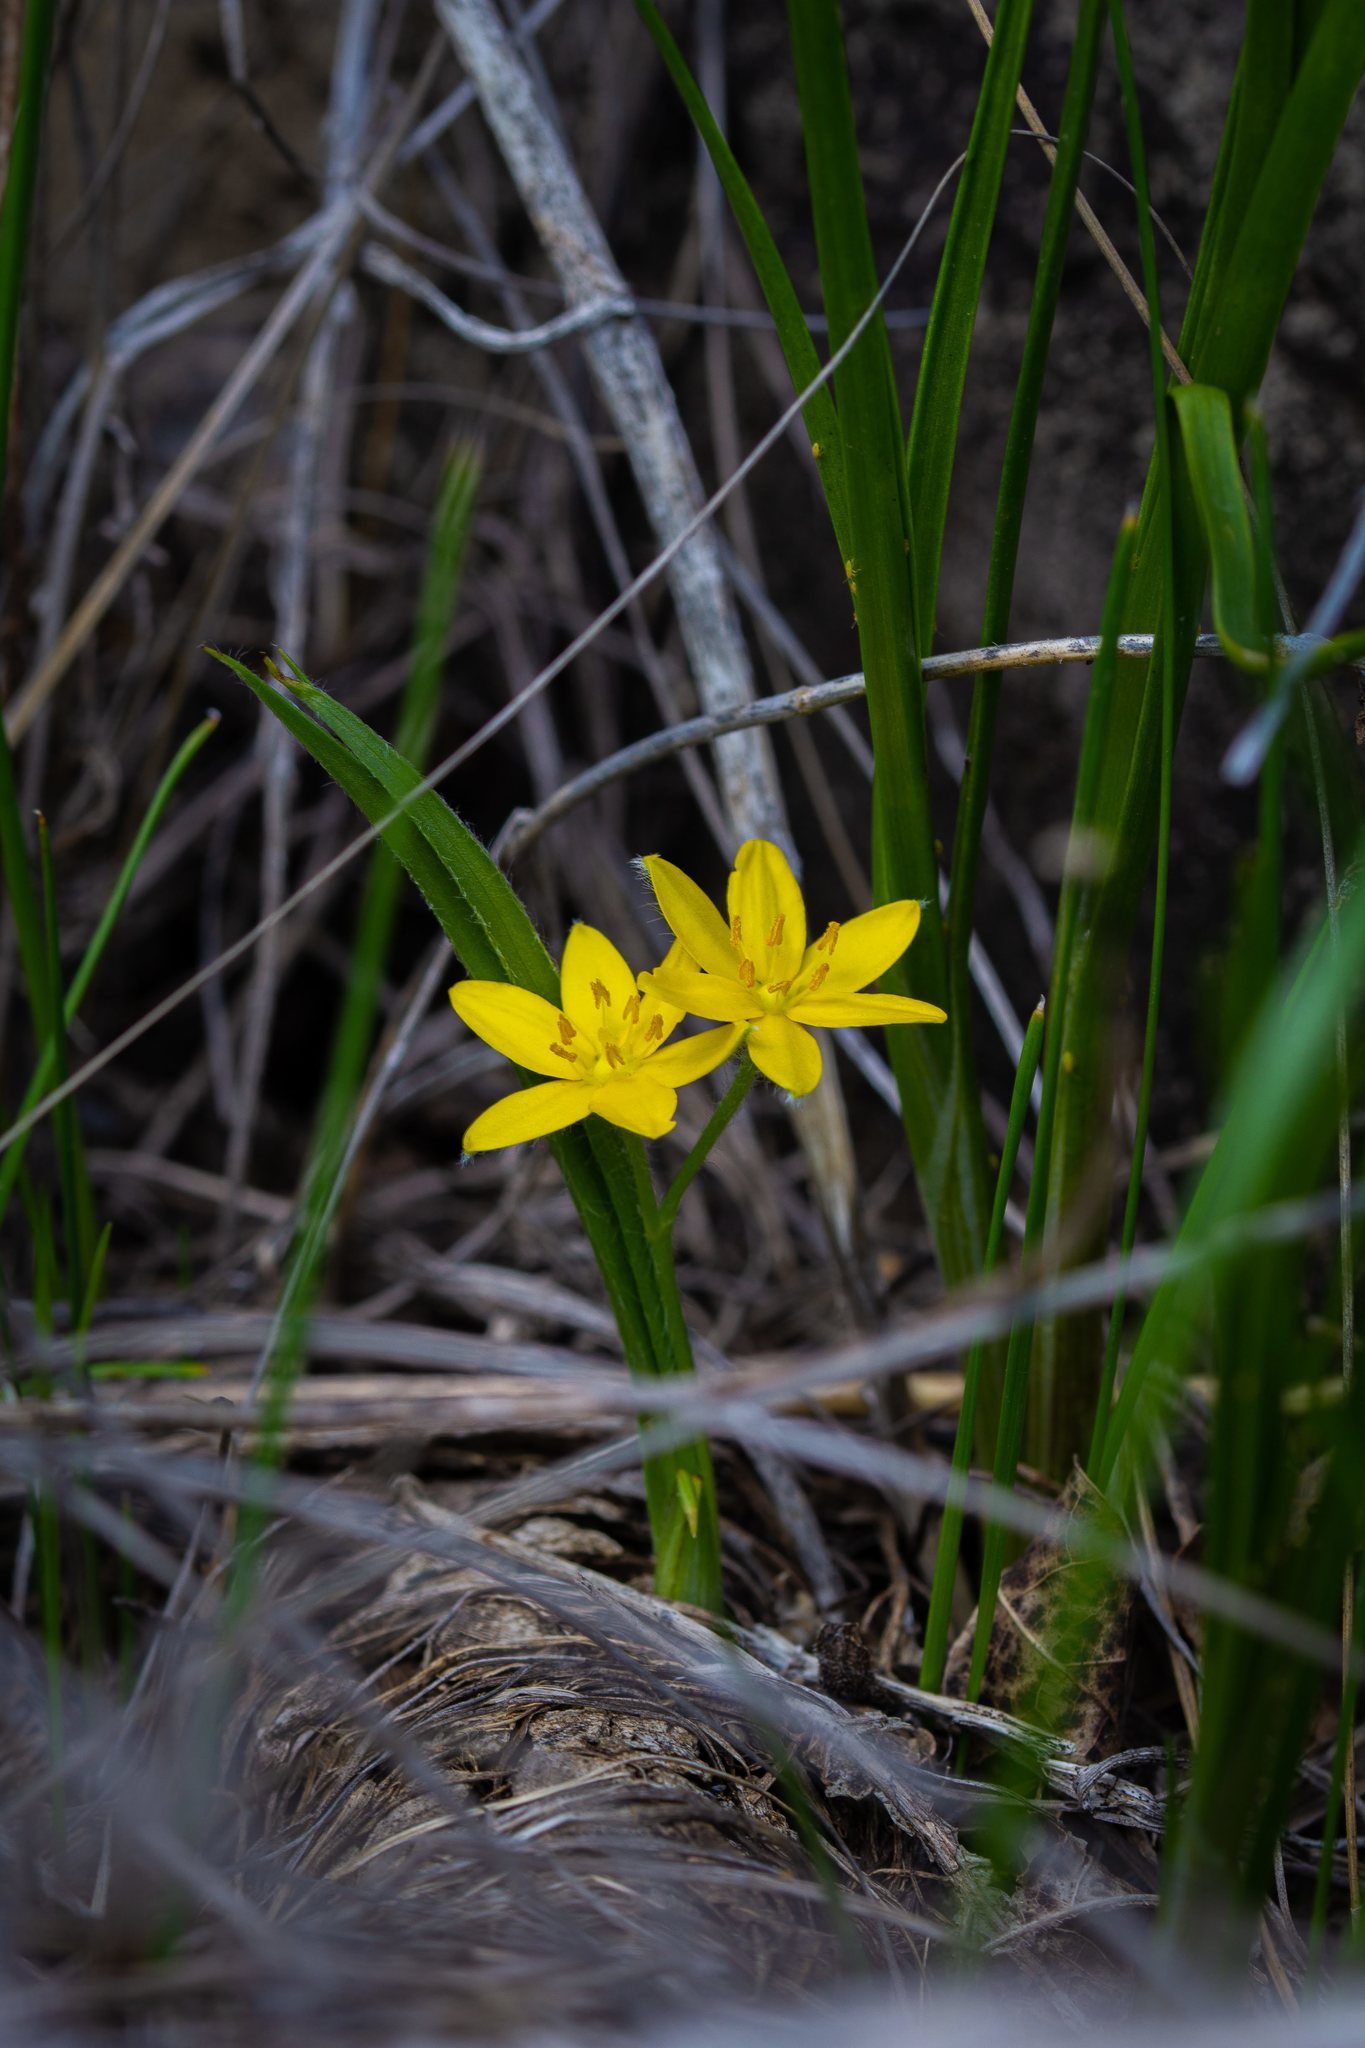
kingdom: Plantae
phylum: Tracheophyta
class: Liliopsida
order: Asparagales
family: Hypoxidaceae
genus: Hypoxis
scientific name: Hypoxis hirsuta
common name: Common goldstar
